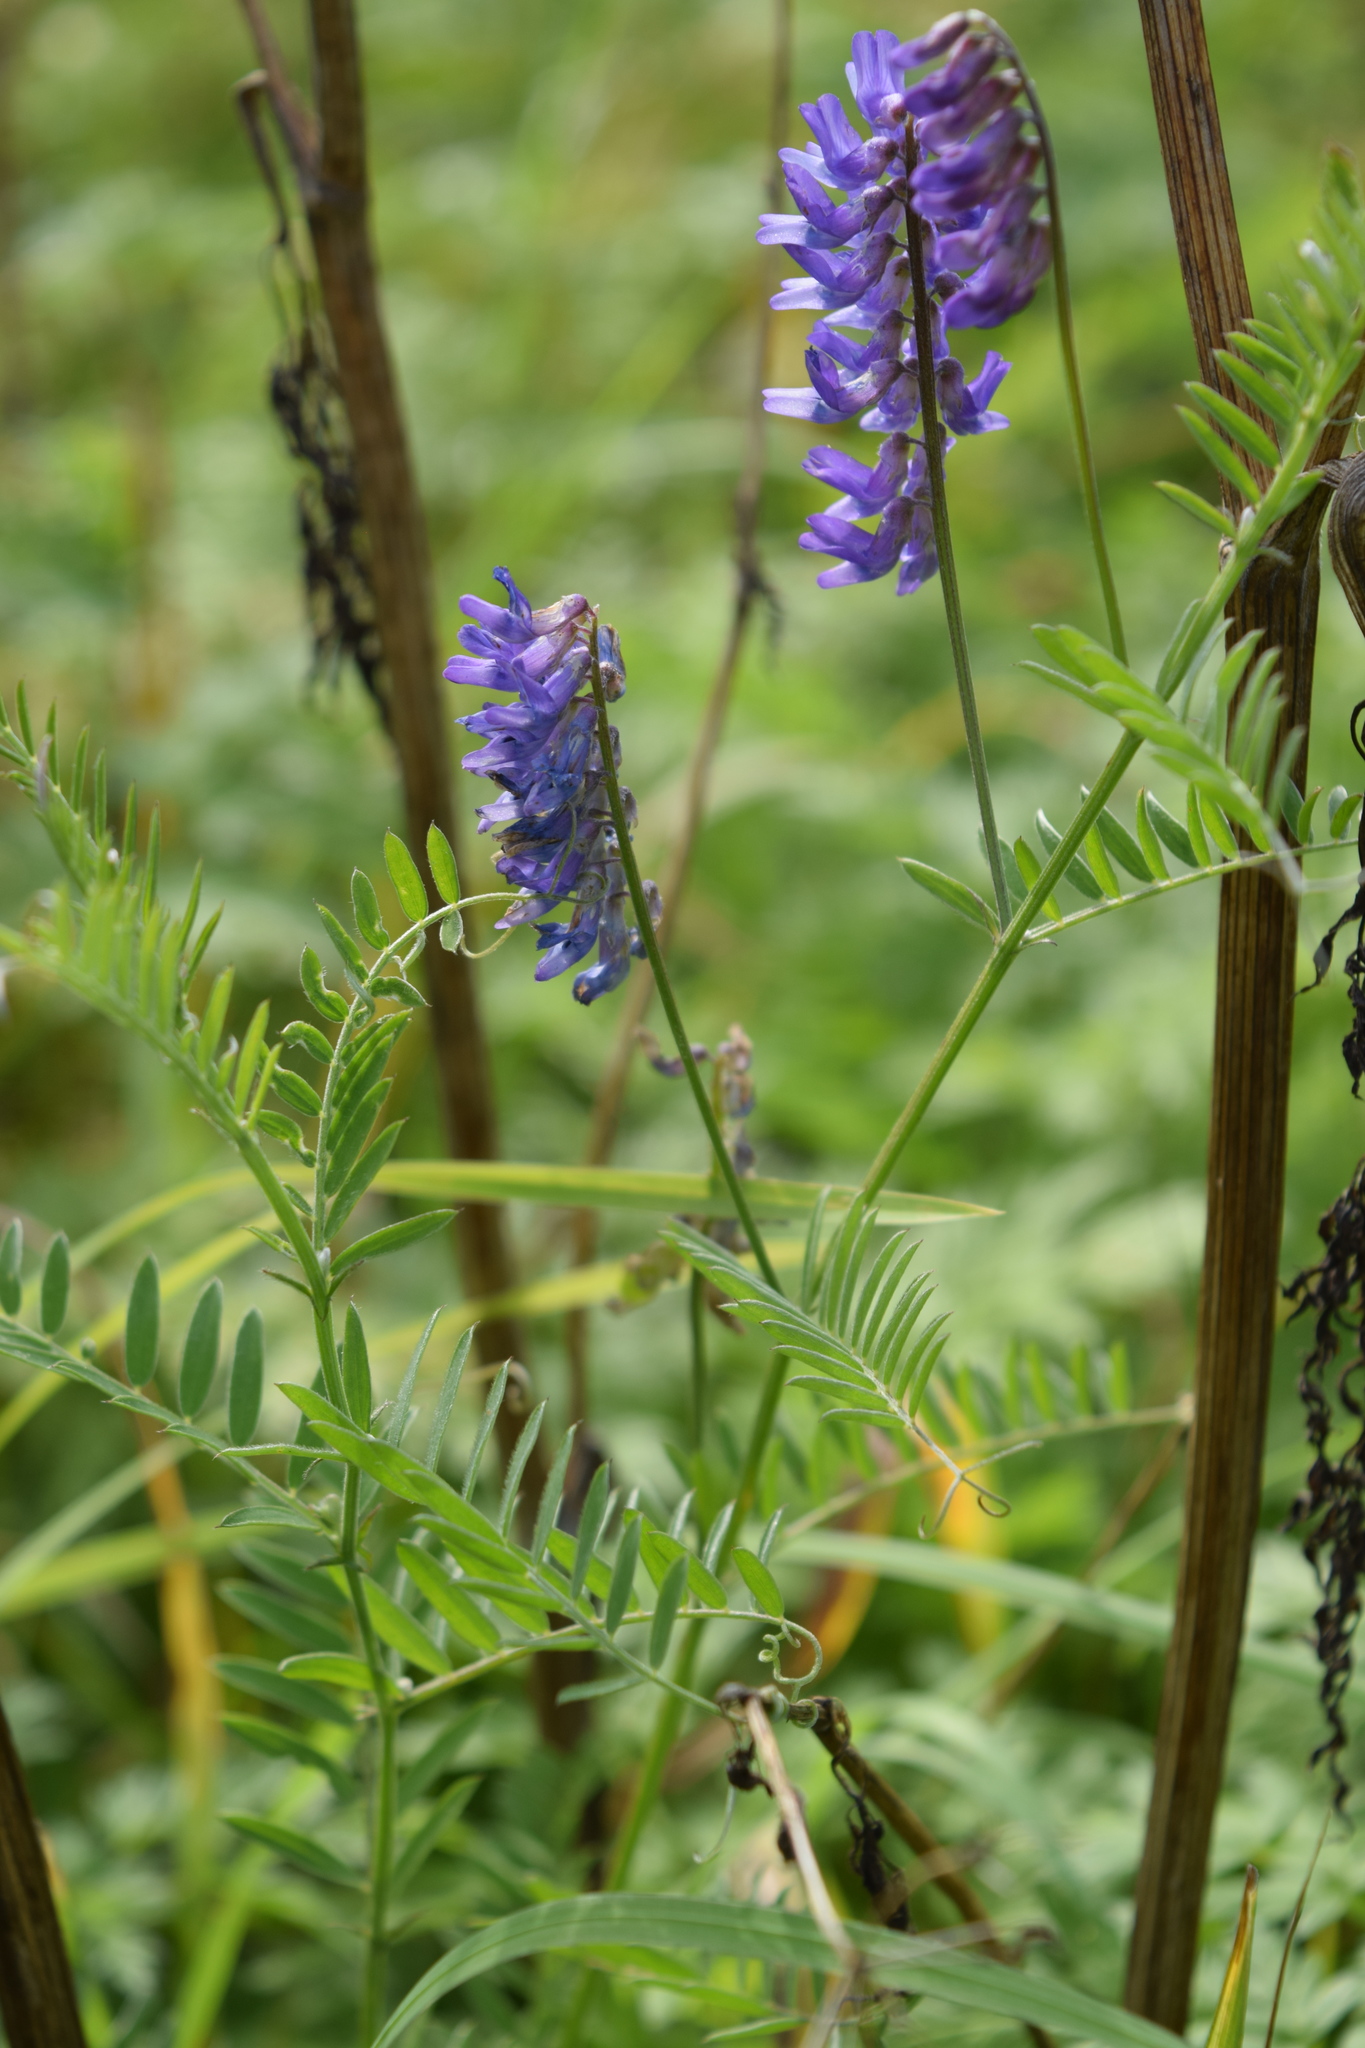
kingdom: Plantae
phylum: Tracheophyta
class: Magnoliopsida
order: Fabales
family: Fabaceae
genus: Vicia
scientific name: Vicia cracca
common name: Bird vetch
